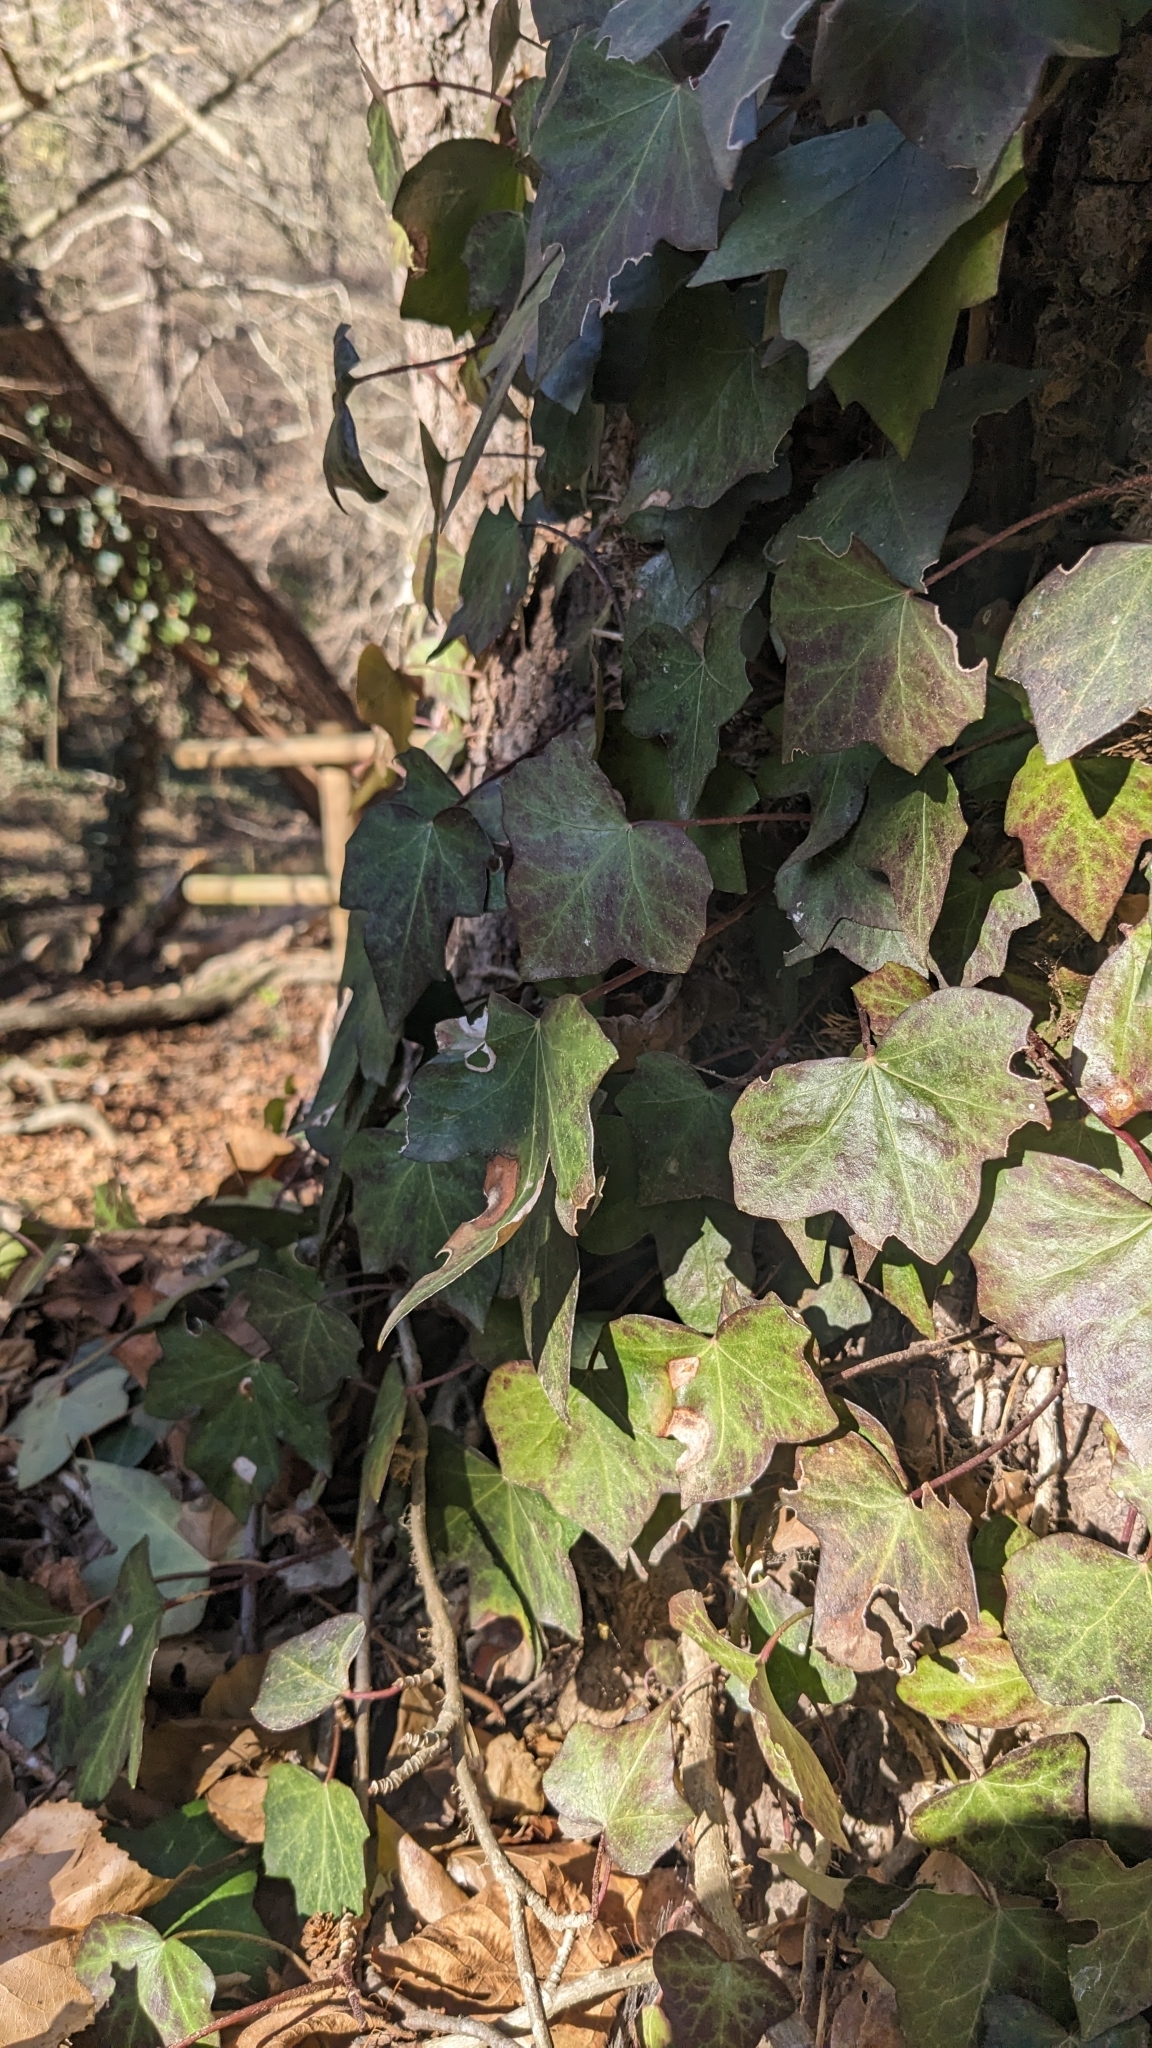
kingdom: Plantae
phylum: Tracheophyta
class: Magnoliopsida
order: Apiales
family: Araliaceae
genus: Hedera
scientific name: Hedera helix
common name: Ivy
